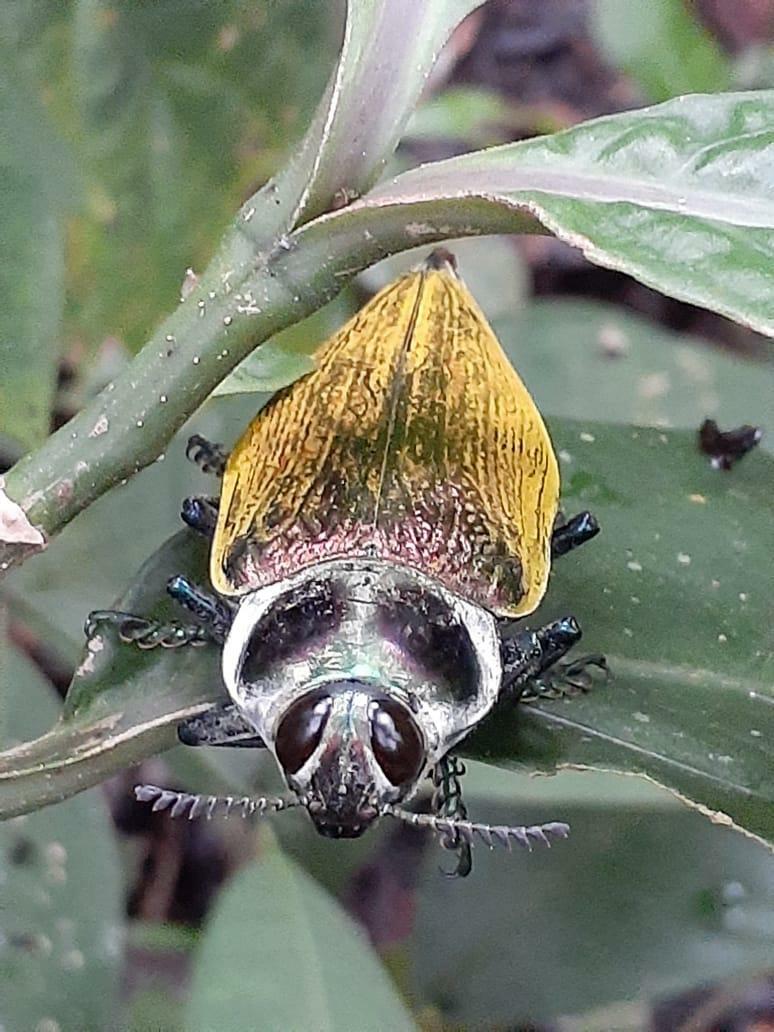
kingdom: Animalia
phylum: Arthropoda
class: Insecta
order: Coleoptera
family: Buprestidae
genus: Euchroma
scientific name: Euchroma giganteum
